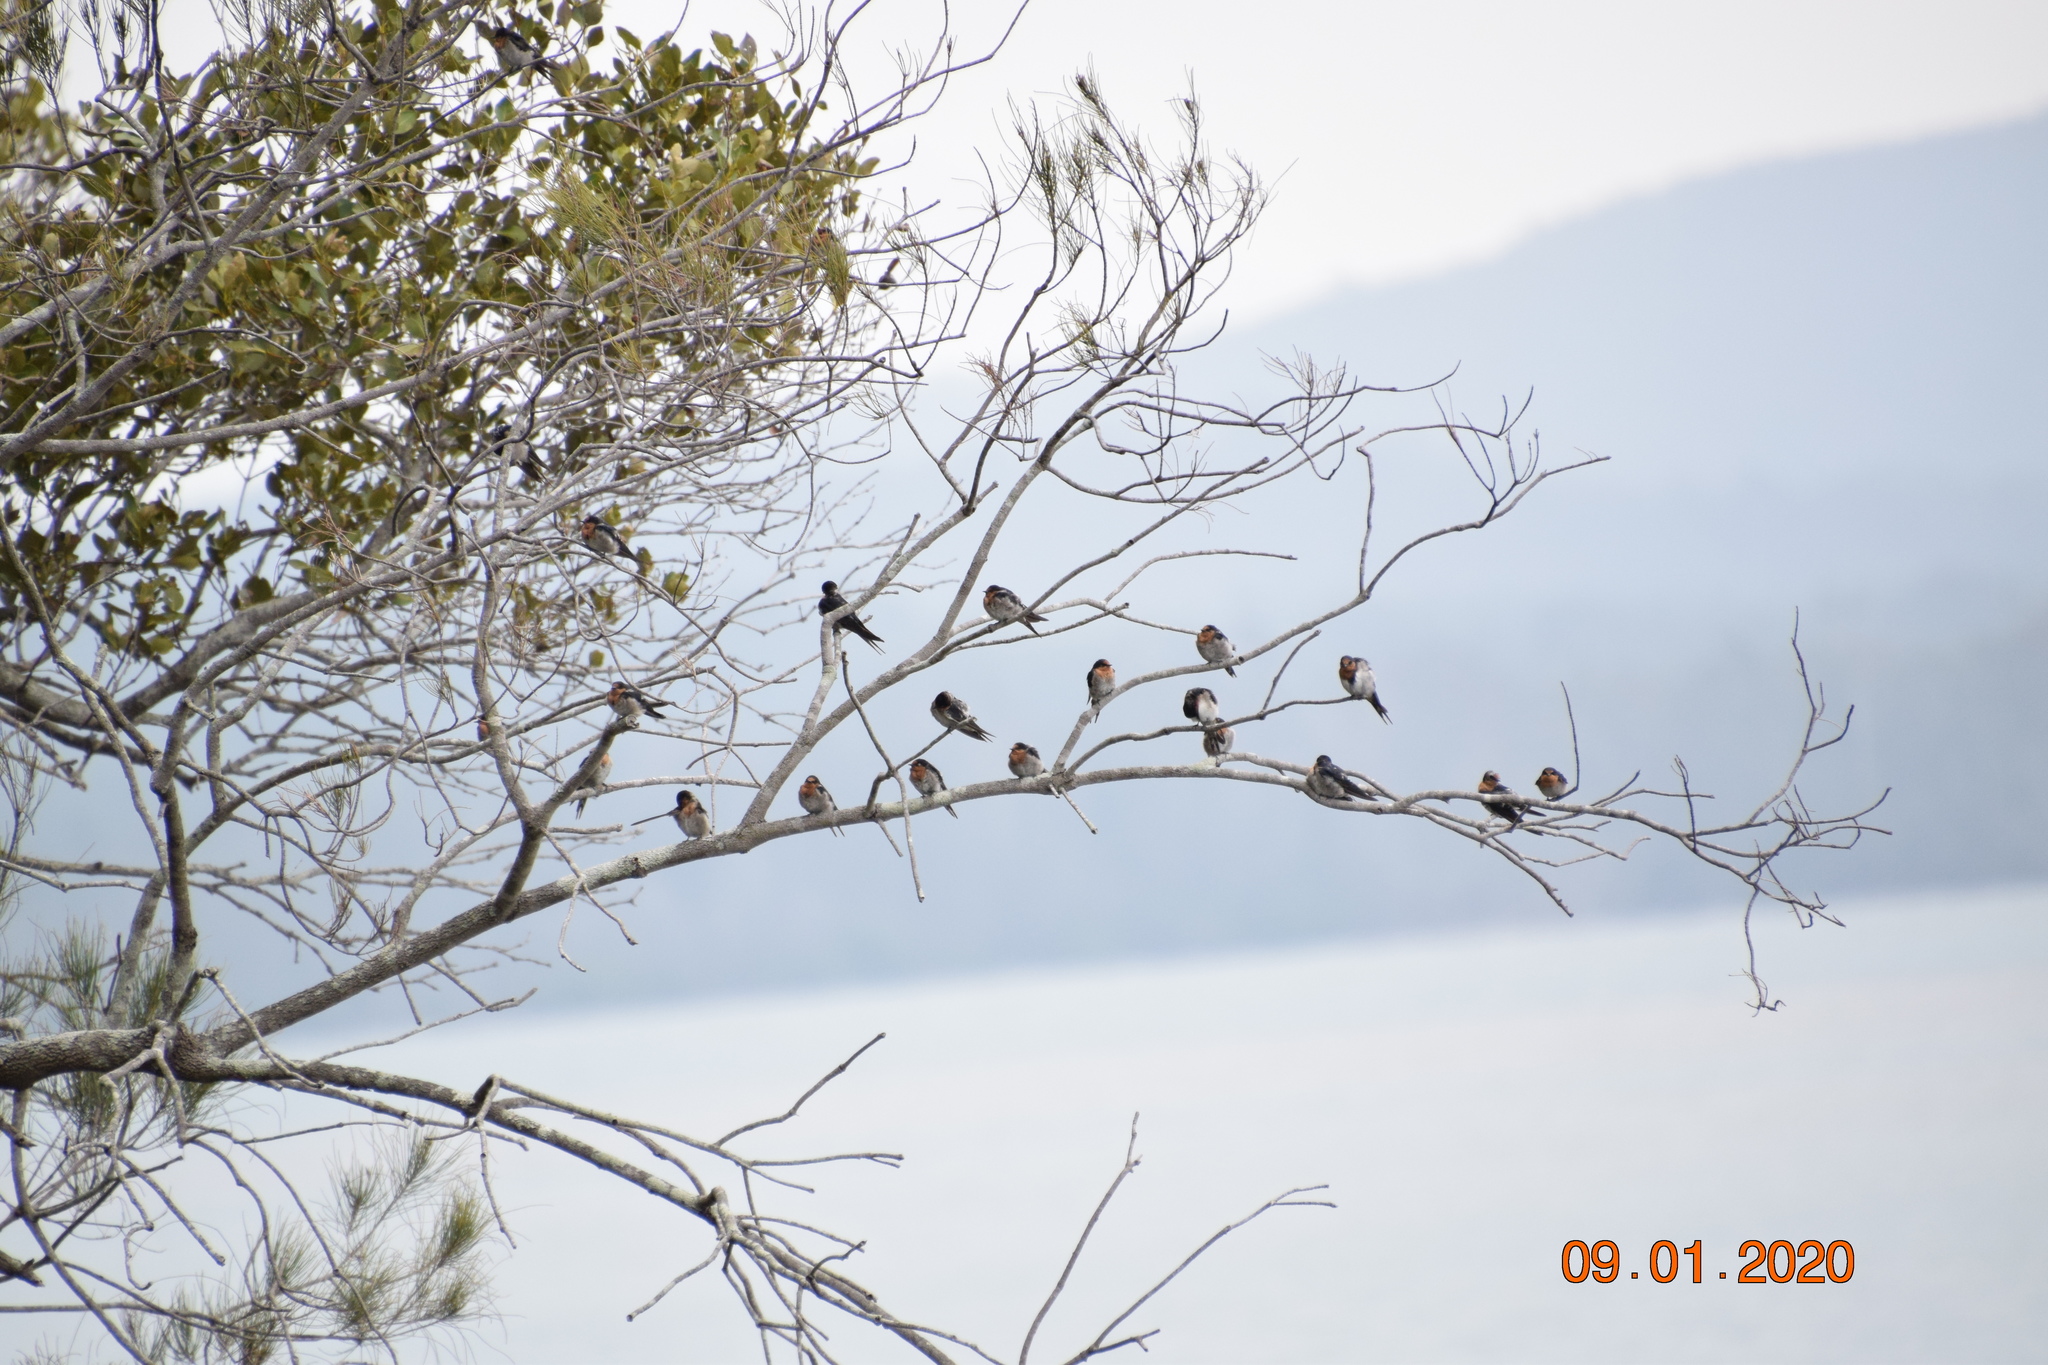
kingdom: Animalia
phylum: Chordata
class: Aves
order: Passeriformes
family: Hirundinidae
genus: Hirundo
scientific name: Hirundo neoxena
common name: Welcome swallow
